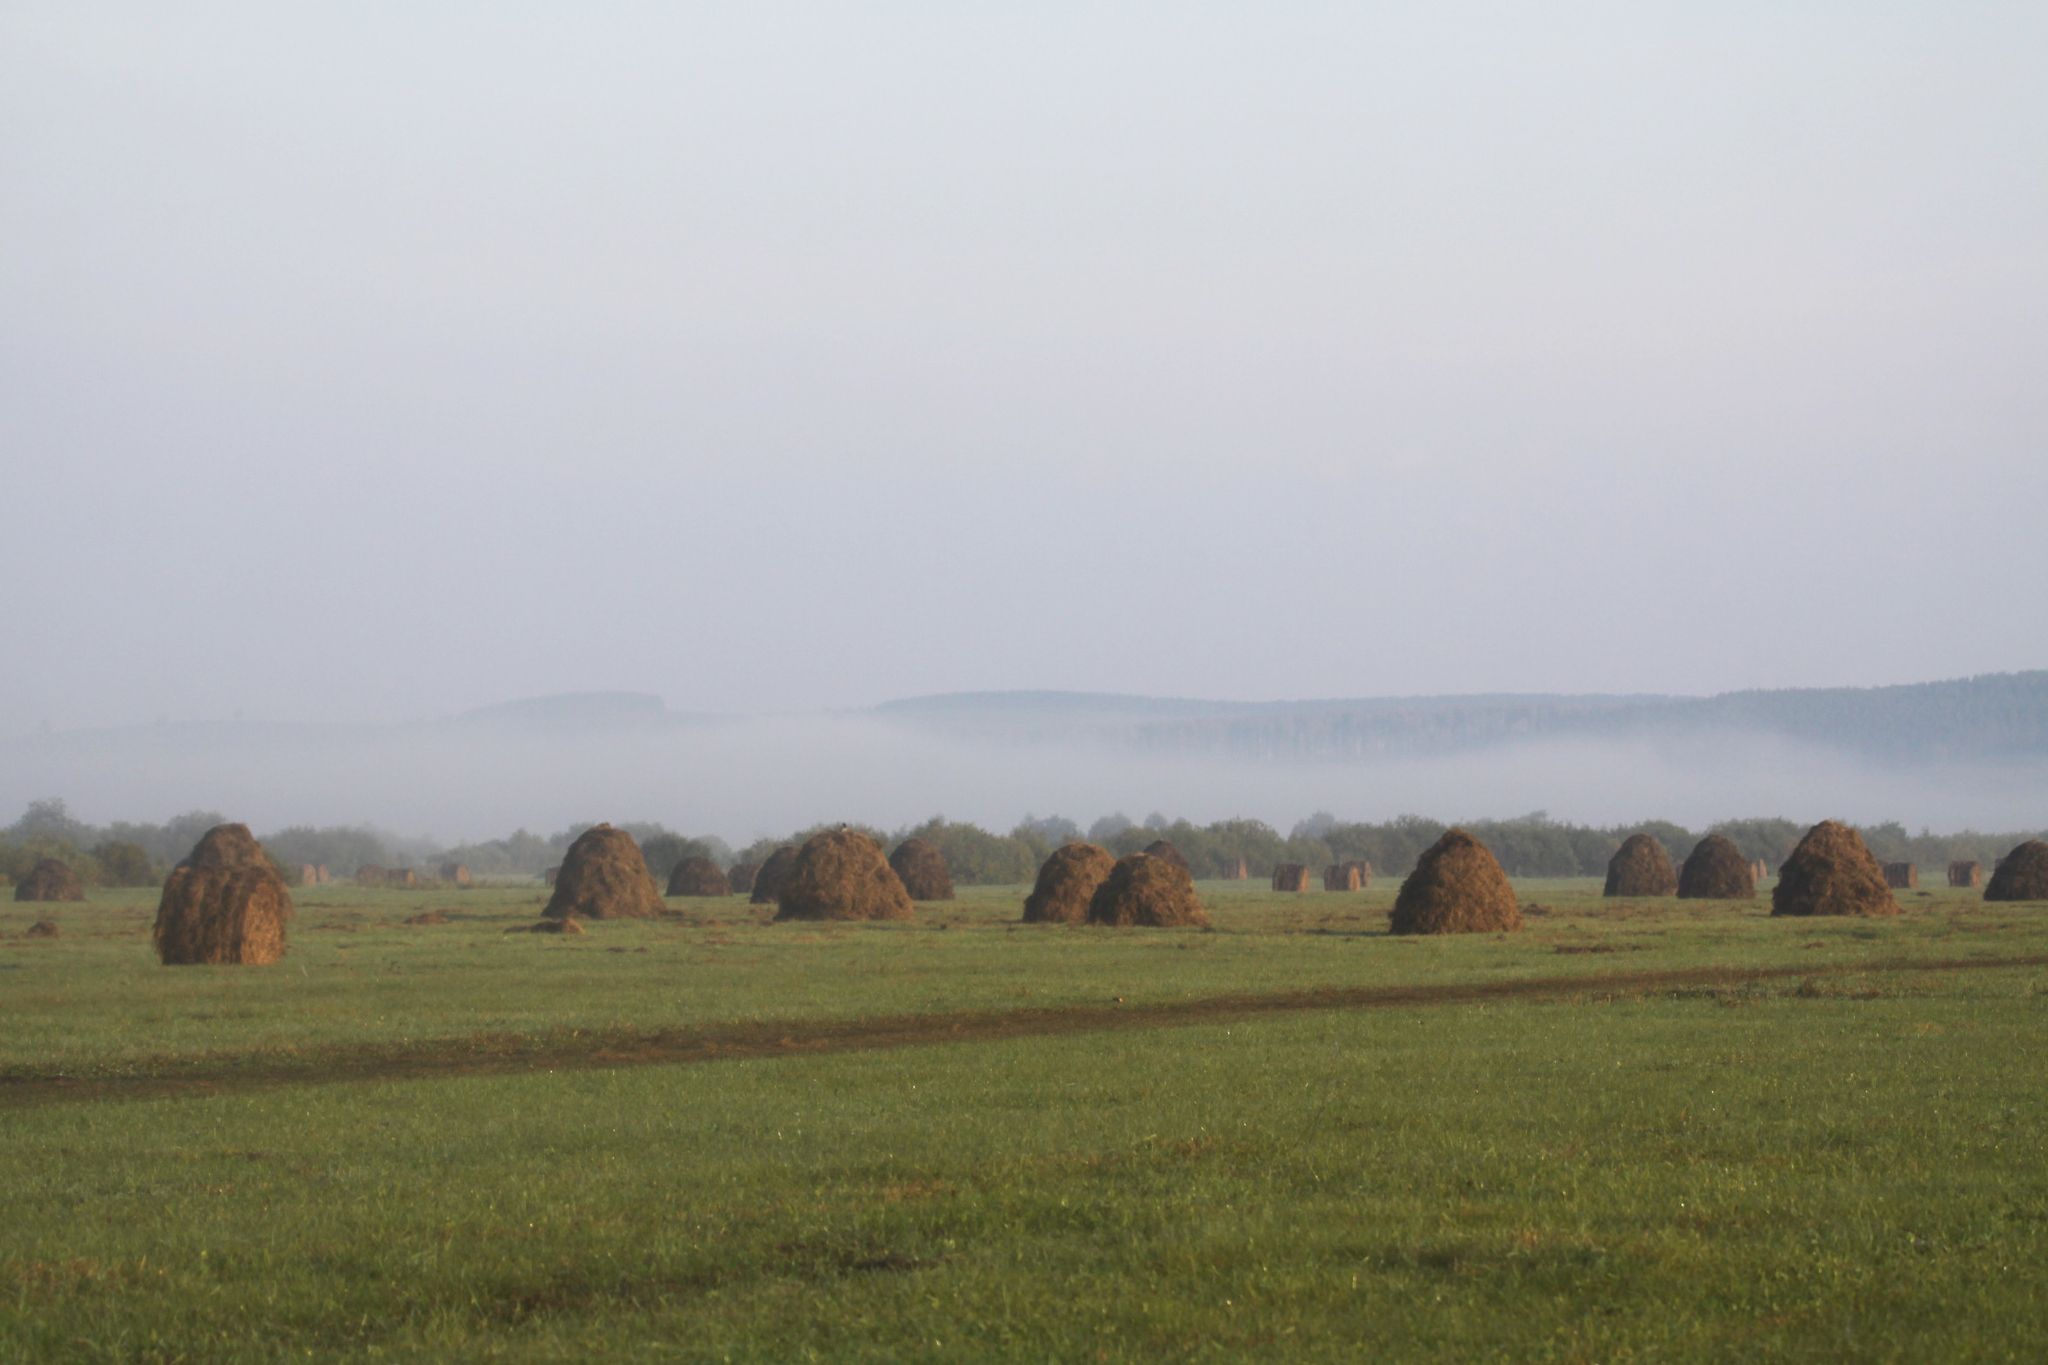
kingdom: Animalia
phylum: Chordata
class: Aves
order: Passeriformes
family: Corvidae
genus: Corvus
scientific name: Corvus cornix
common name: Hooded crow
